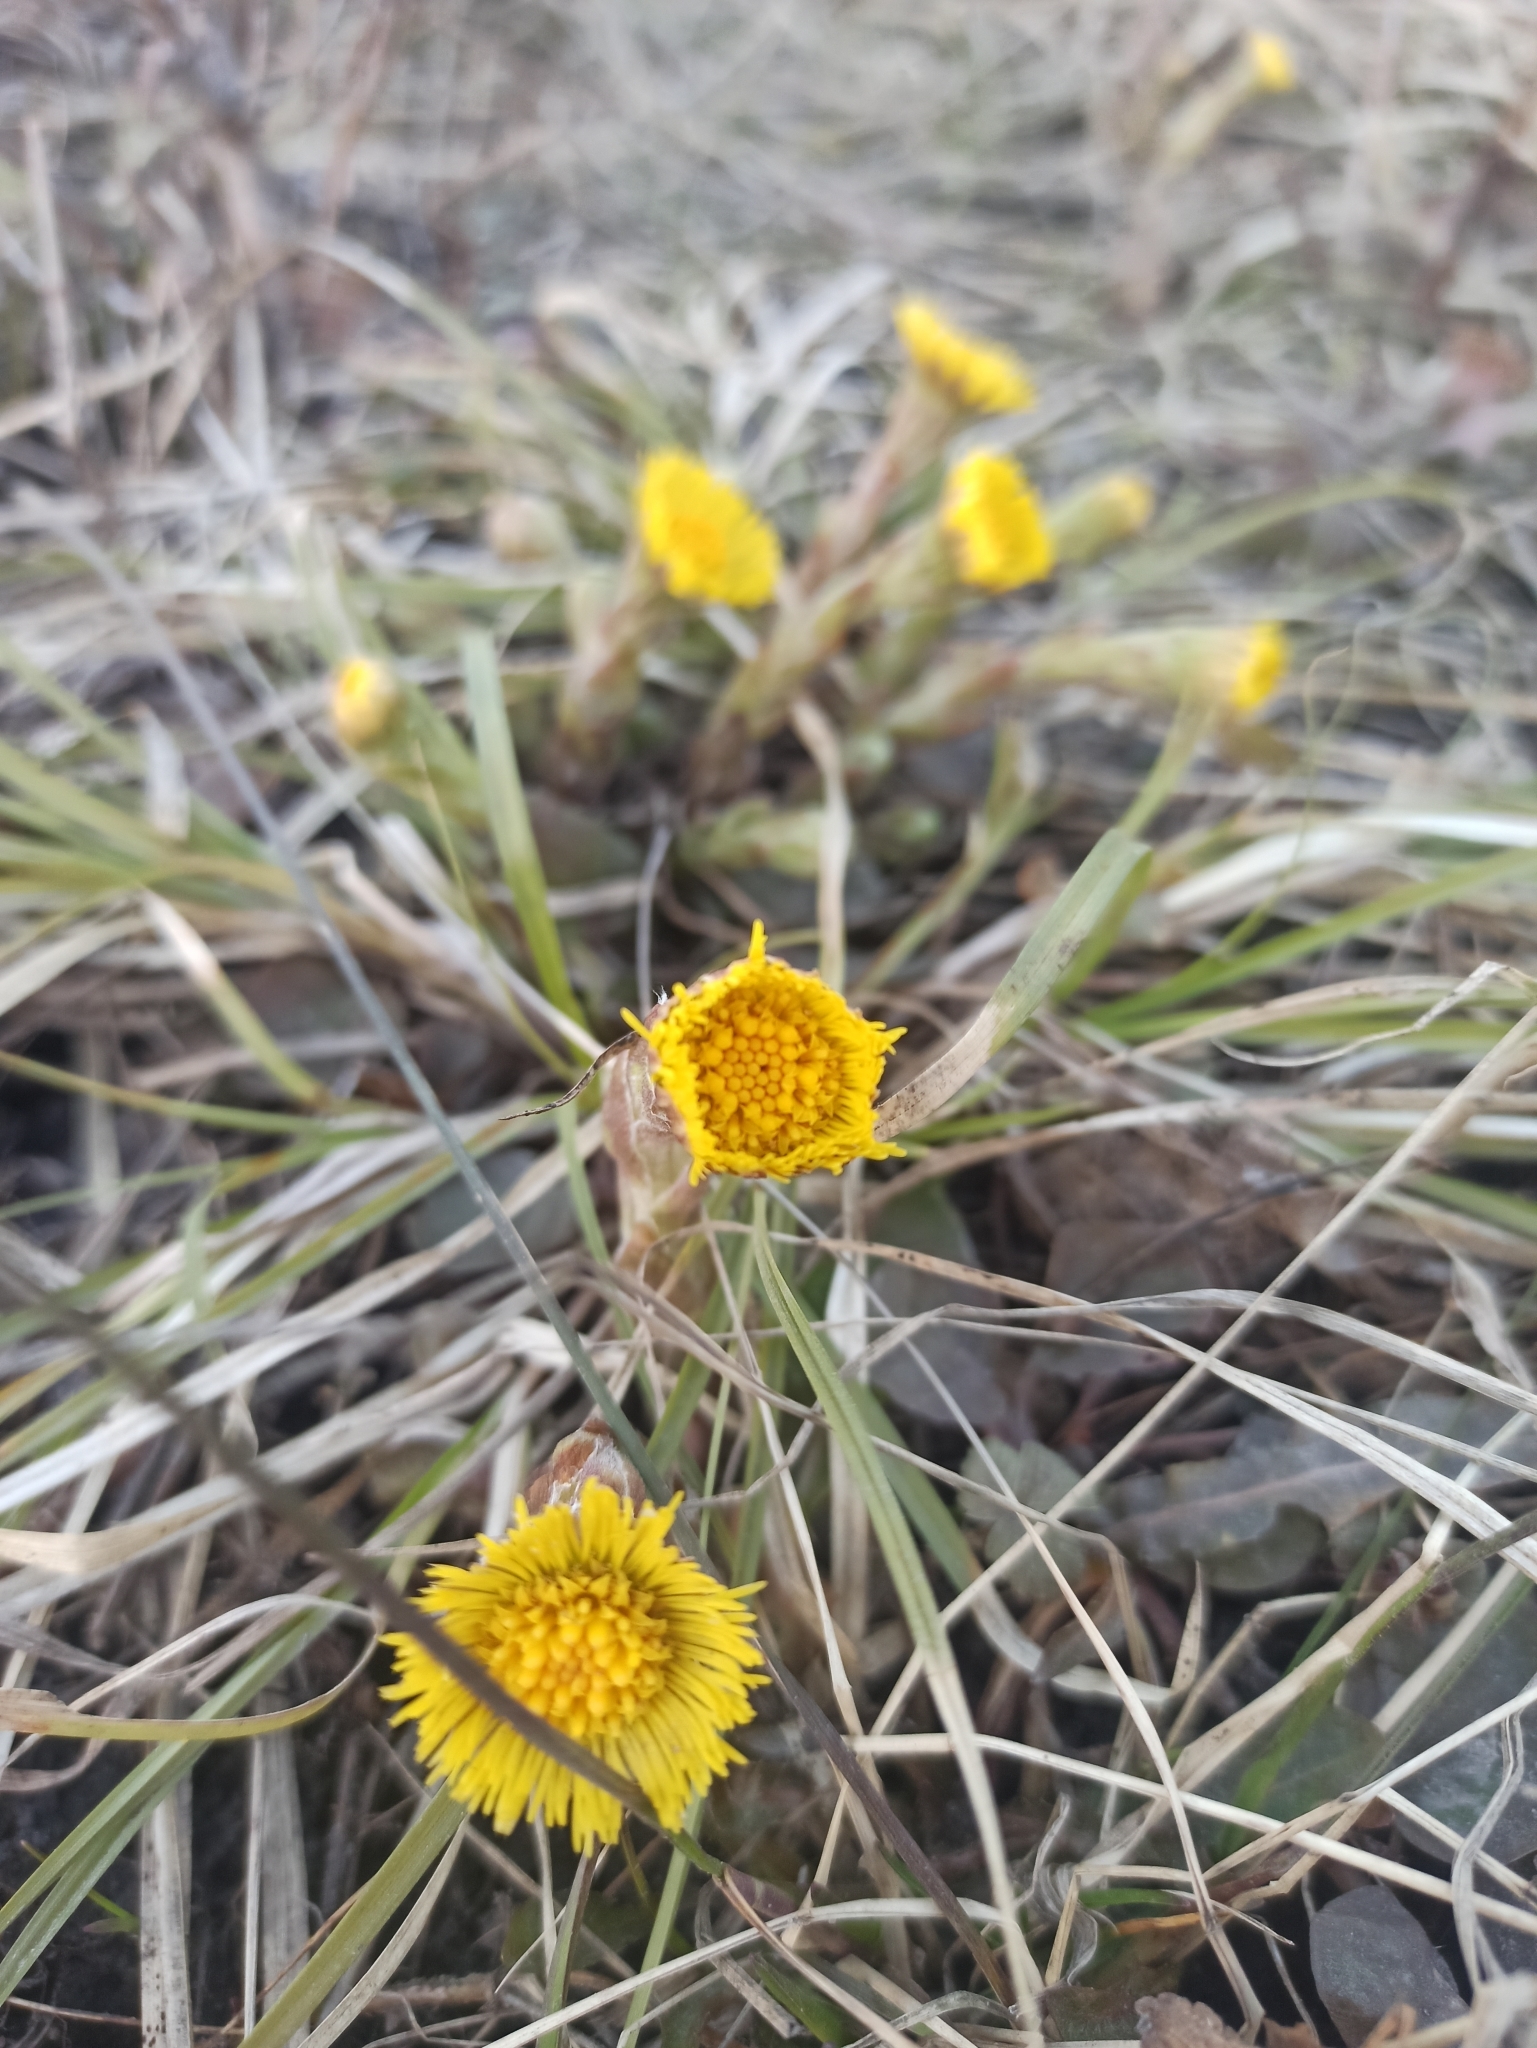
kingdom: Plantae
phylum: Tracheophyta
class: Magnoliopsida
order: Asterales
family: Asteraceae
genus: Tussilago
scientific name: Tussilago farfara
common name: Coltsfoot
